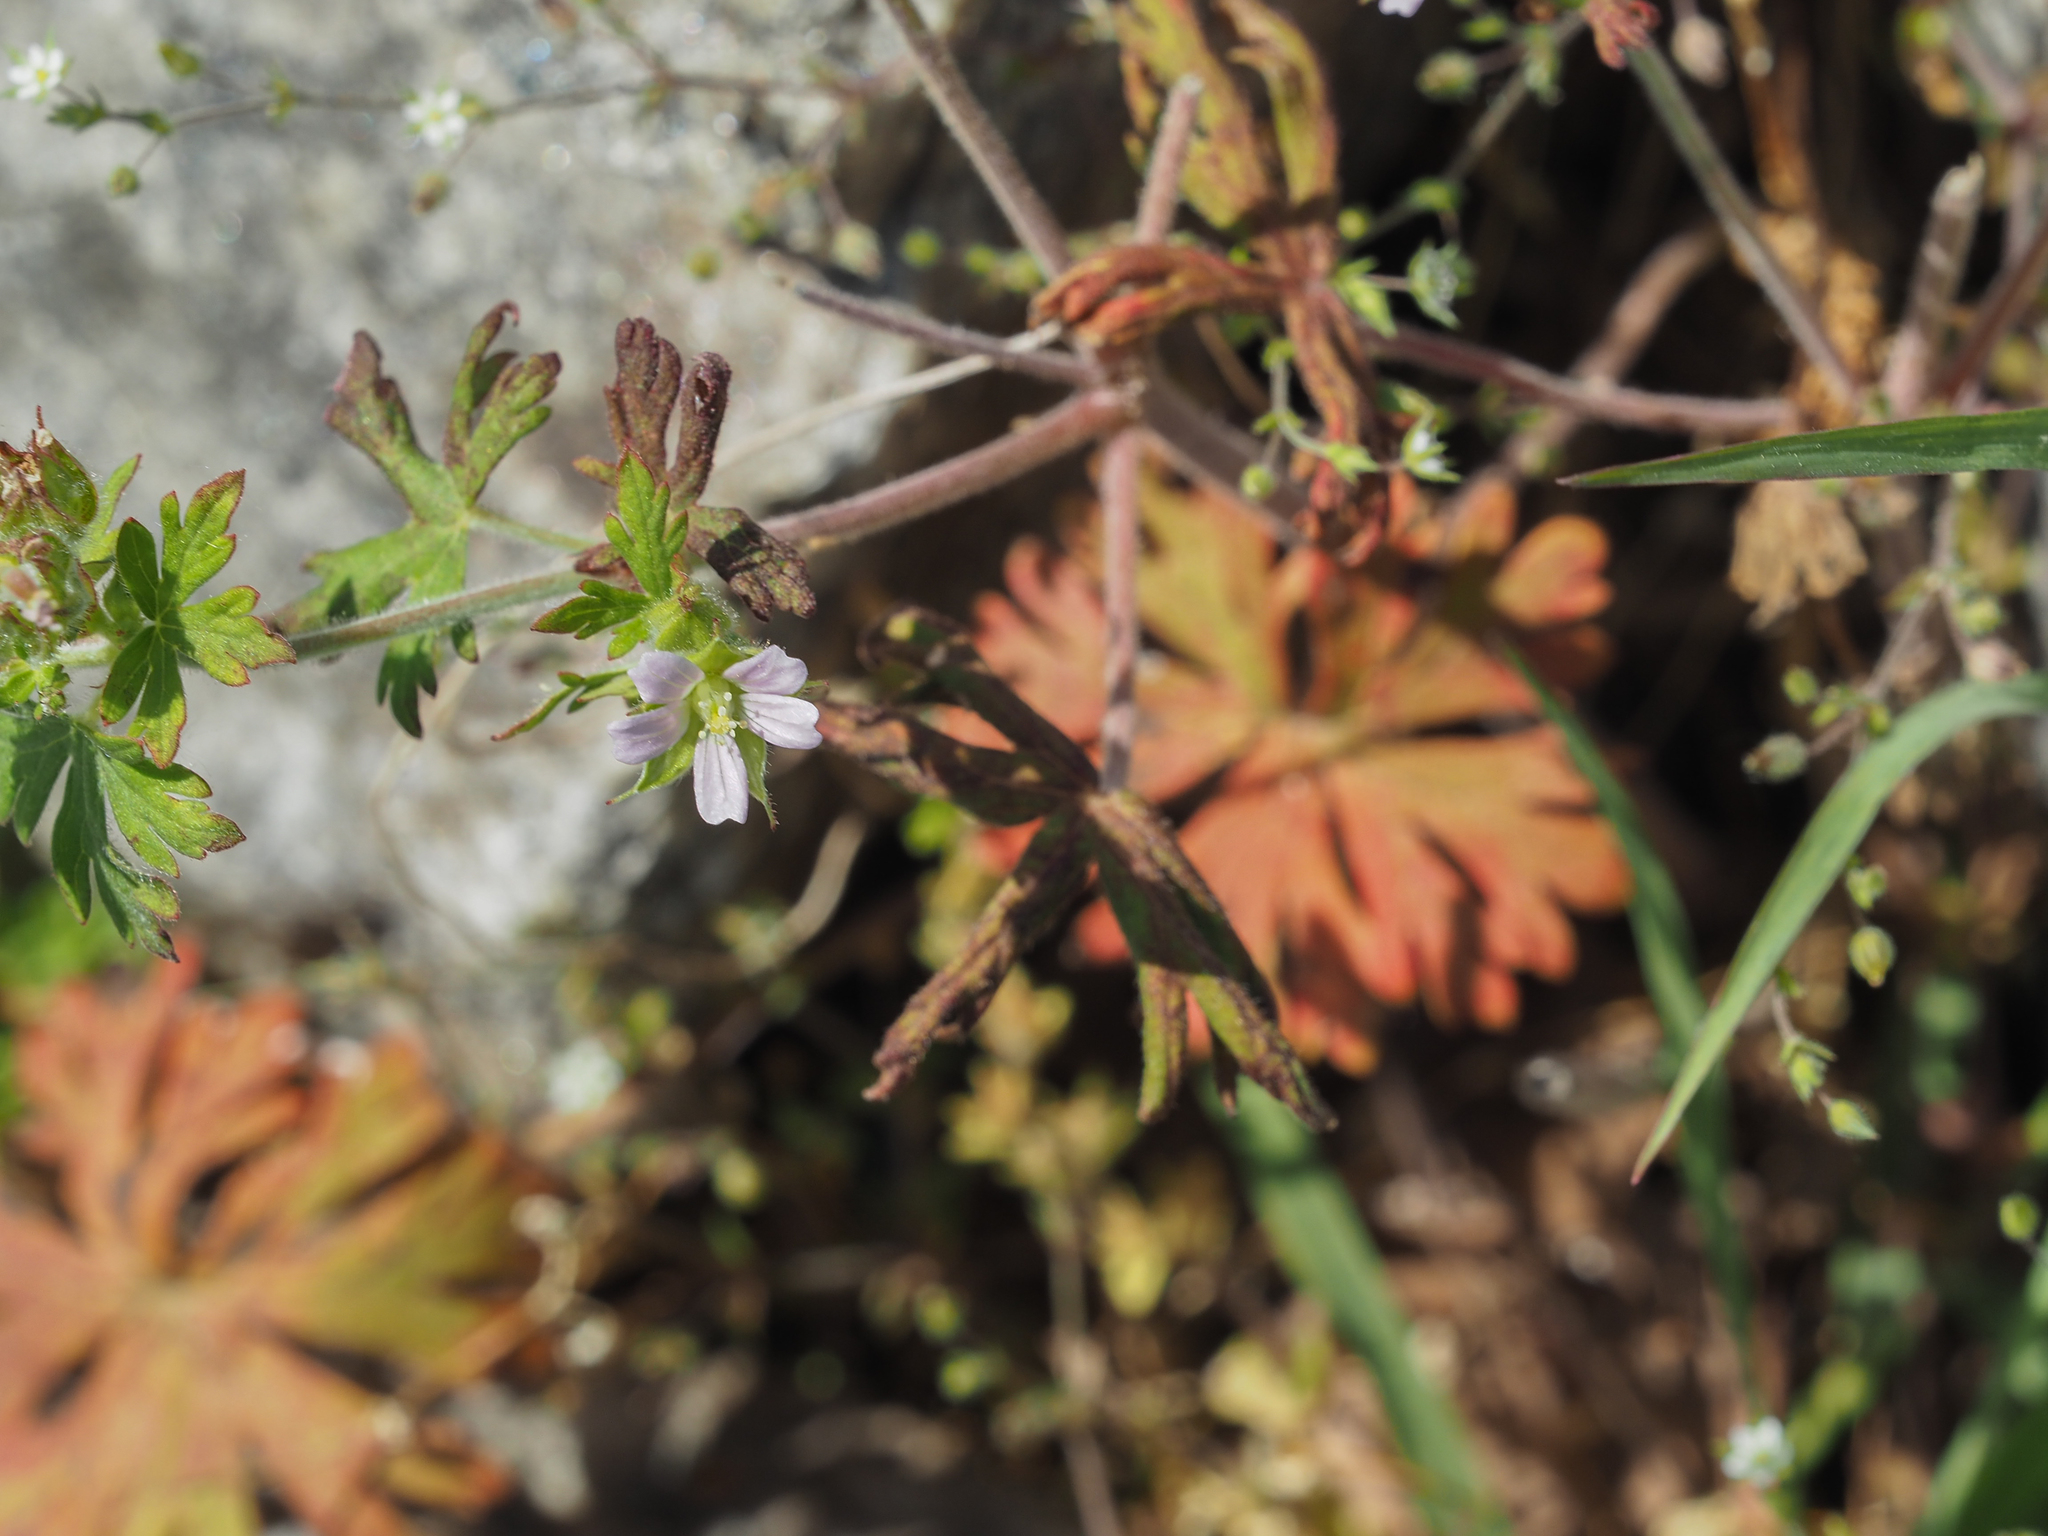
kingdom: Plantae
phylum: Tracheophyta
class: Magnoliopsida
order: Geraniales
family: Geraniaceae
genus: Geranium
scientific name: Geranium carolinianum
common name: Carolina crane's-bill
